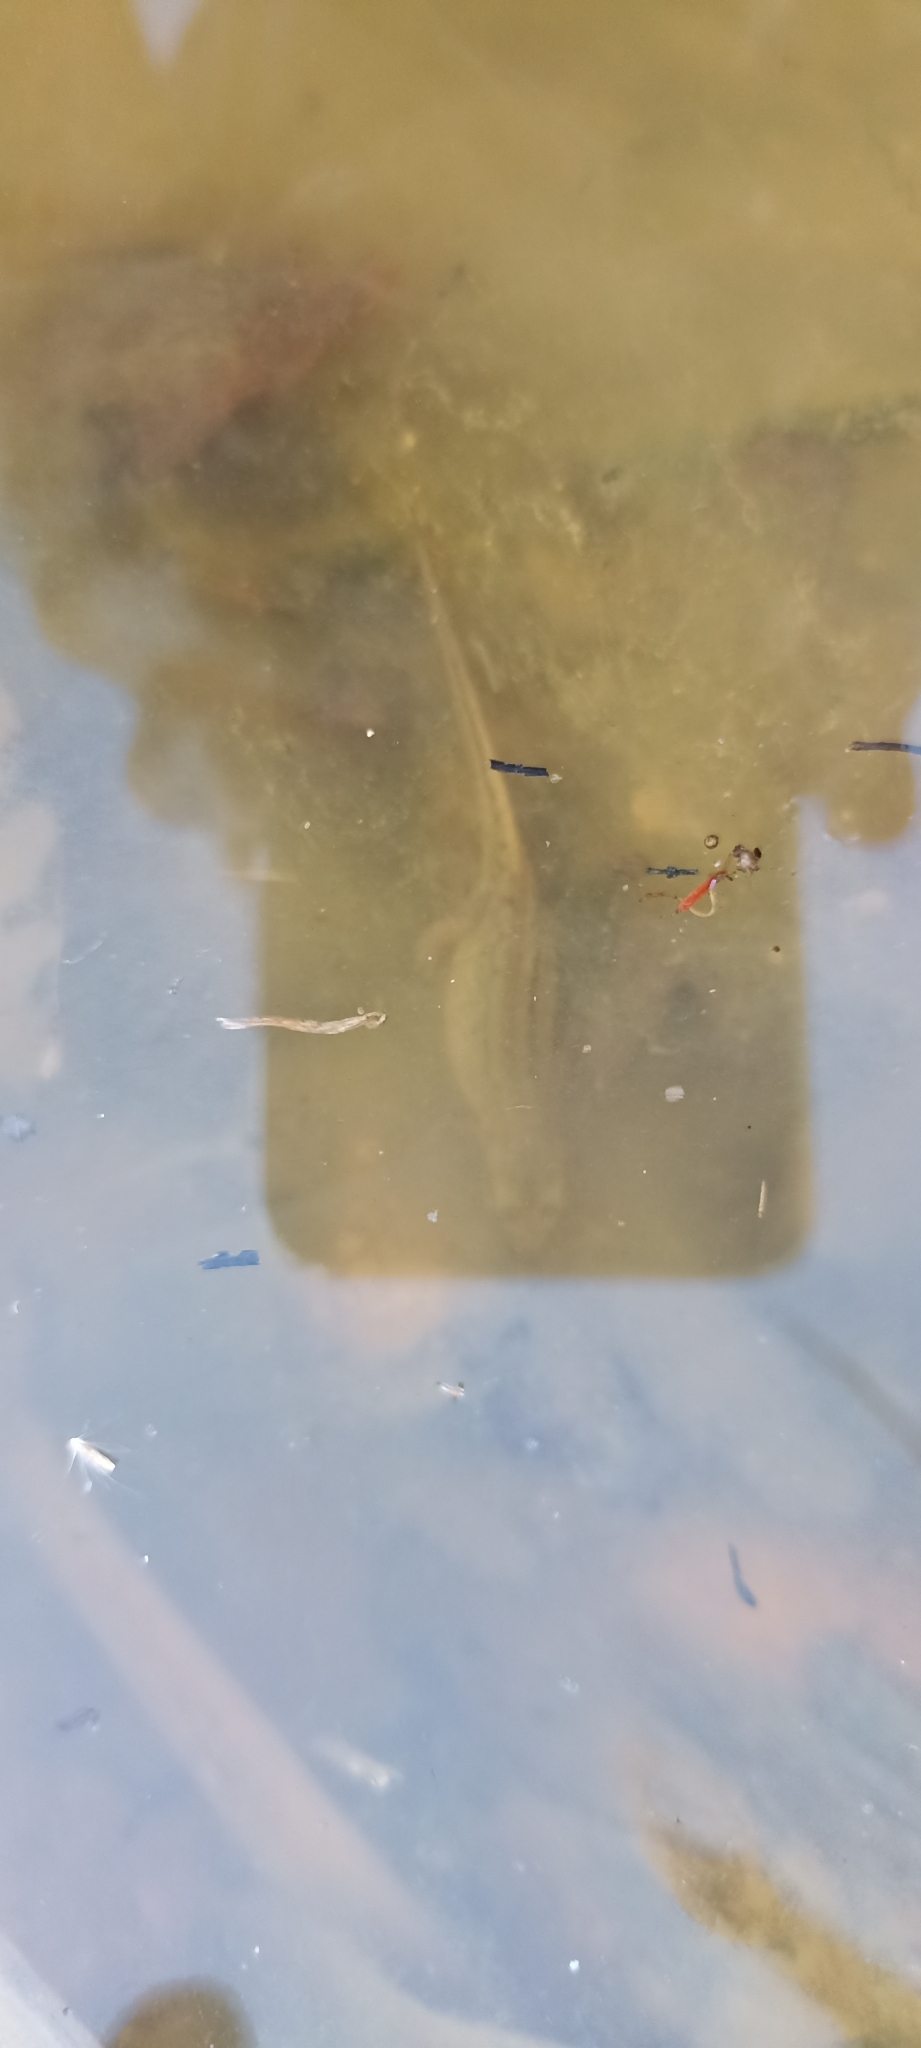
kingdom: Animalia
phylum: Chordata
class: Amphibia
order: Caudata
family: Salamandridae
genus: Lissotriton
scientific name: Lissotriton helveticus
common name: Palmate newt
